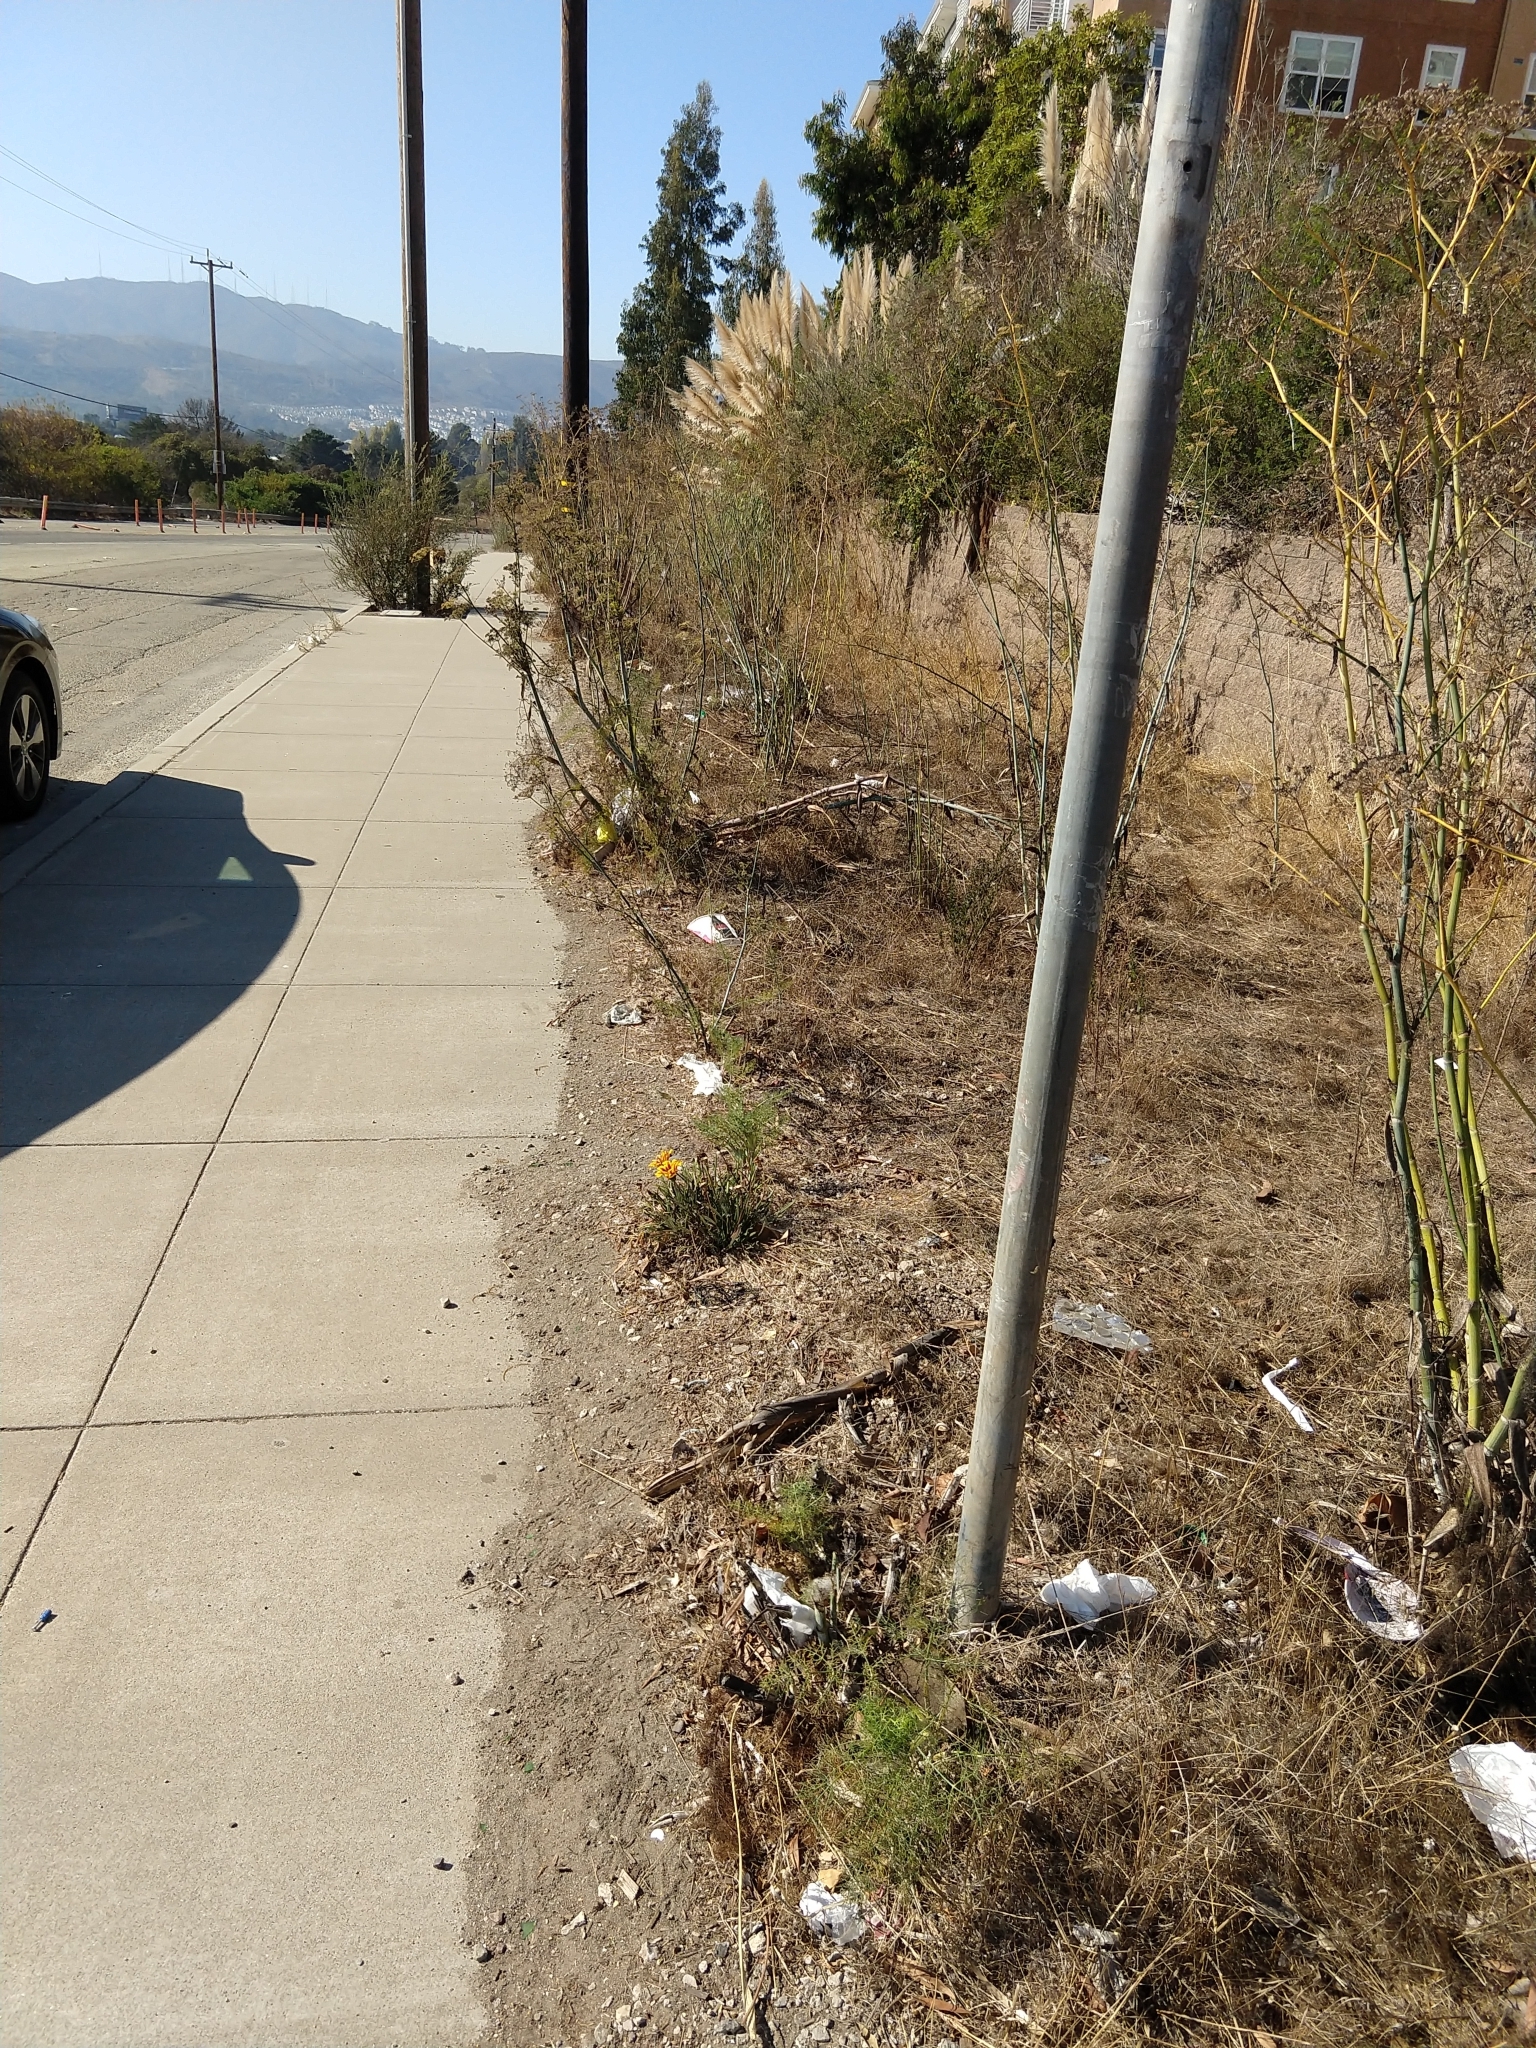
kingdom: Plantae
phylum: Tracheophyta
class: Magnoliopsida
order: Asterales
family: Asteraceae
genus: Gazania
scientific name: Gazania linearis
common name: Treasureflower
